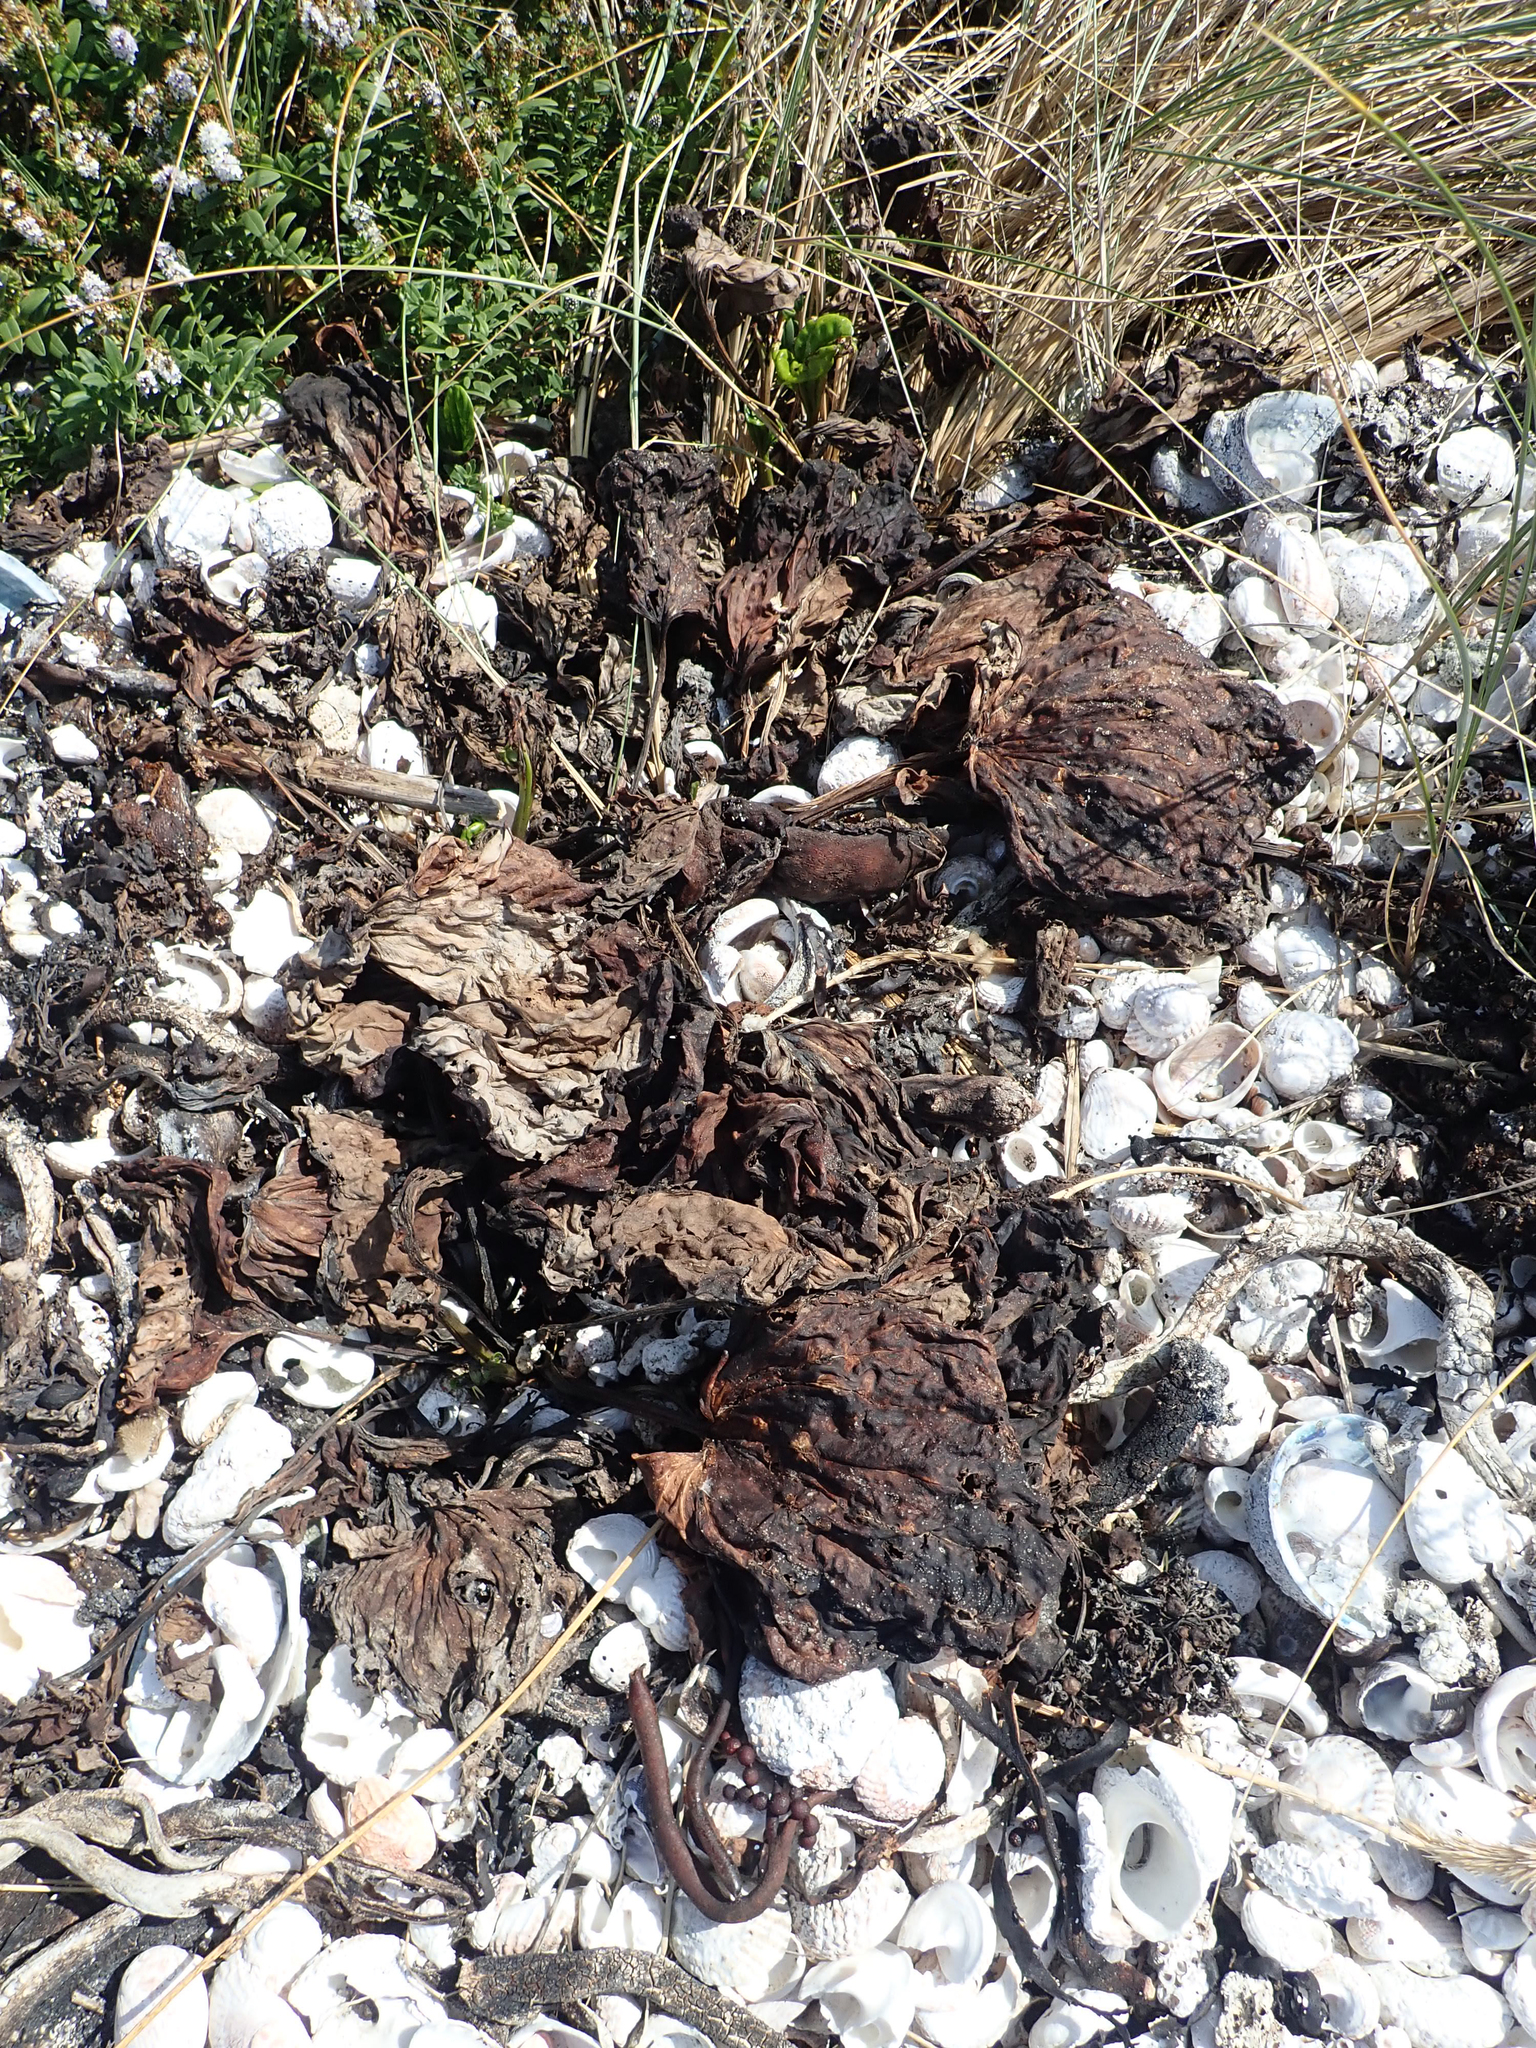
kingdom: Plantae
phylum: Tracheophyta
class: Magnoliopsida
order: Boraginales
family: Boraginaceae
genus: Myosotidium
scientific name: Myosotidium hortensia
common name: Giant forget-me-not
